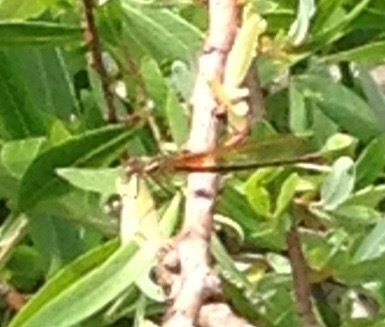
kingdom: Animalia
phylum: Arthropoda
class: Insecta
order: Odonata
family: Calopterygidae
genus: Hetaerina
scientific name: Hetaerina americana
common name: American rubyspot
